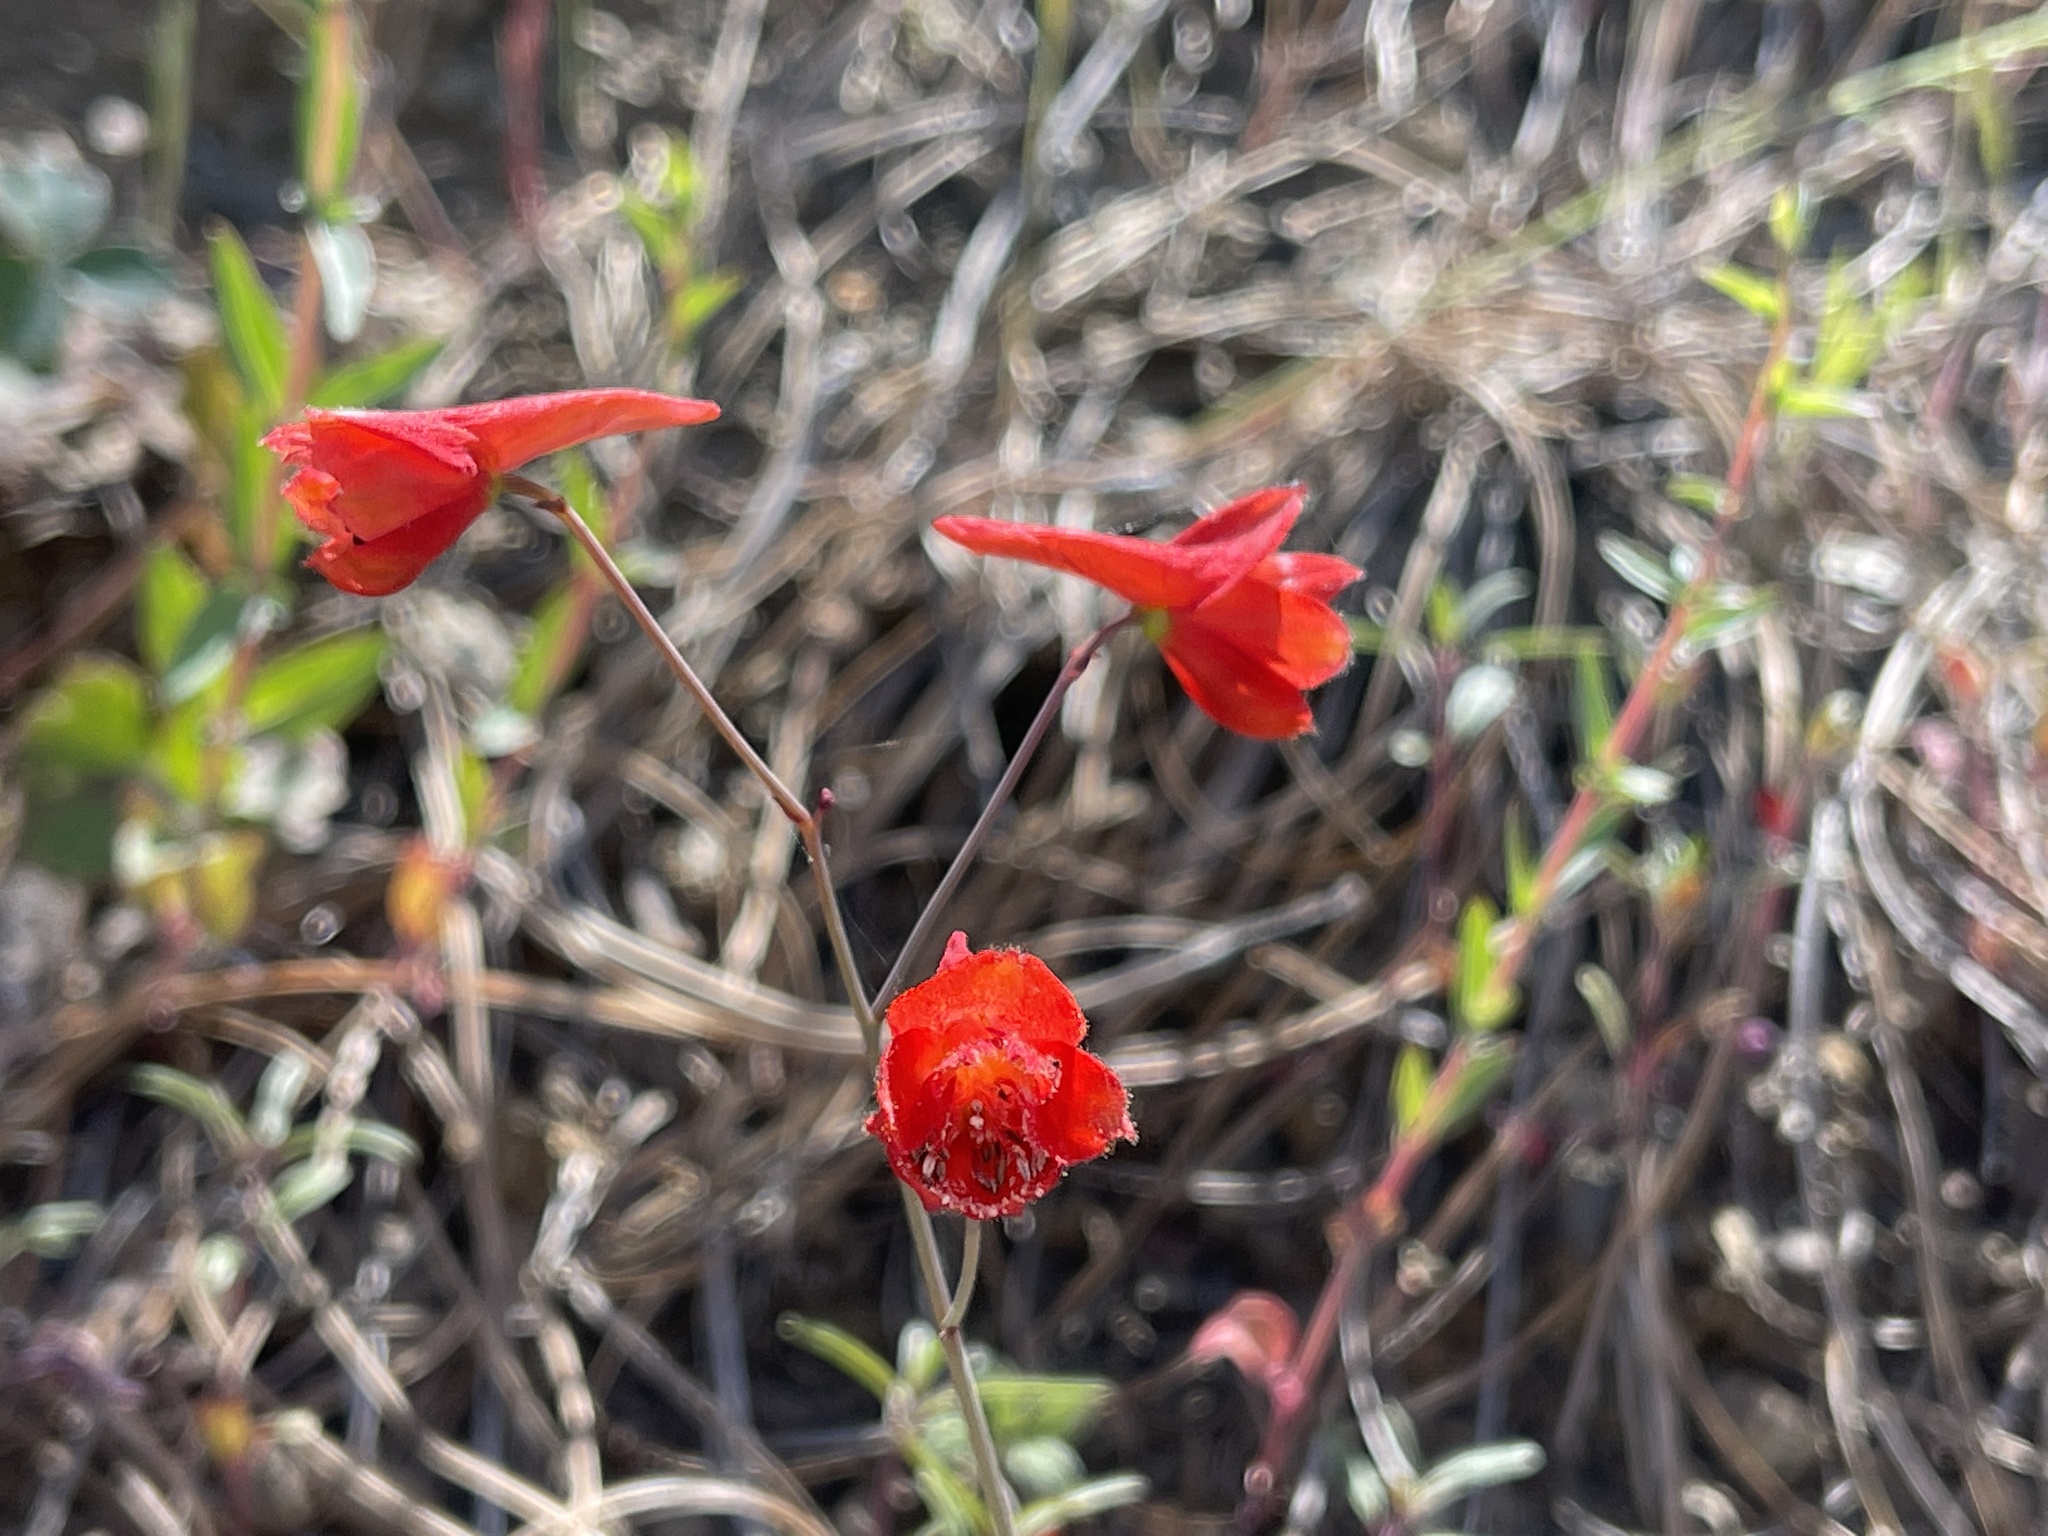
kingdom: Plantae
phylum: Tracheophyta
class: Magnoliopsida
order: Ranunculales
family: Ranunculaceae
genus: Delphinium
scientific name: Delphinium nudicaule
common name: Red larkspur
